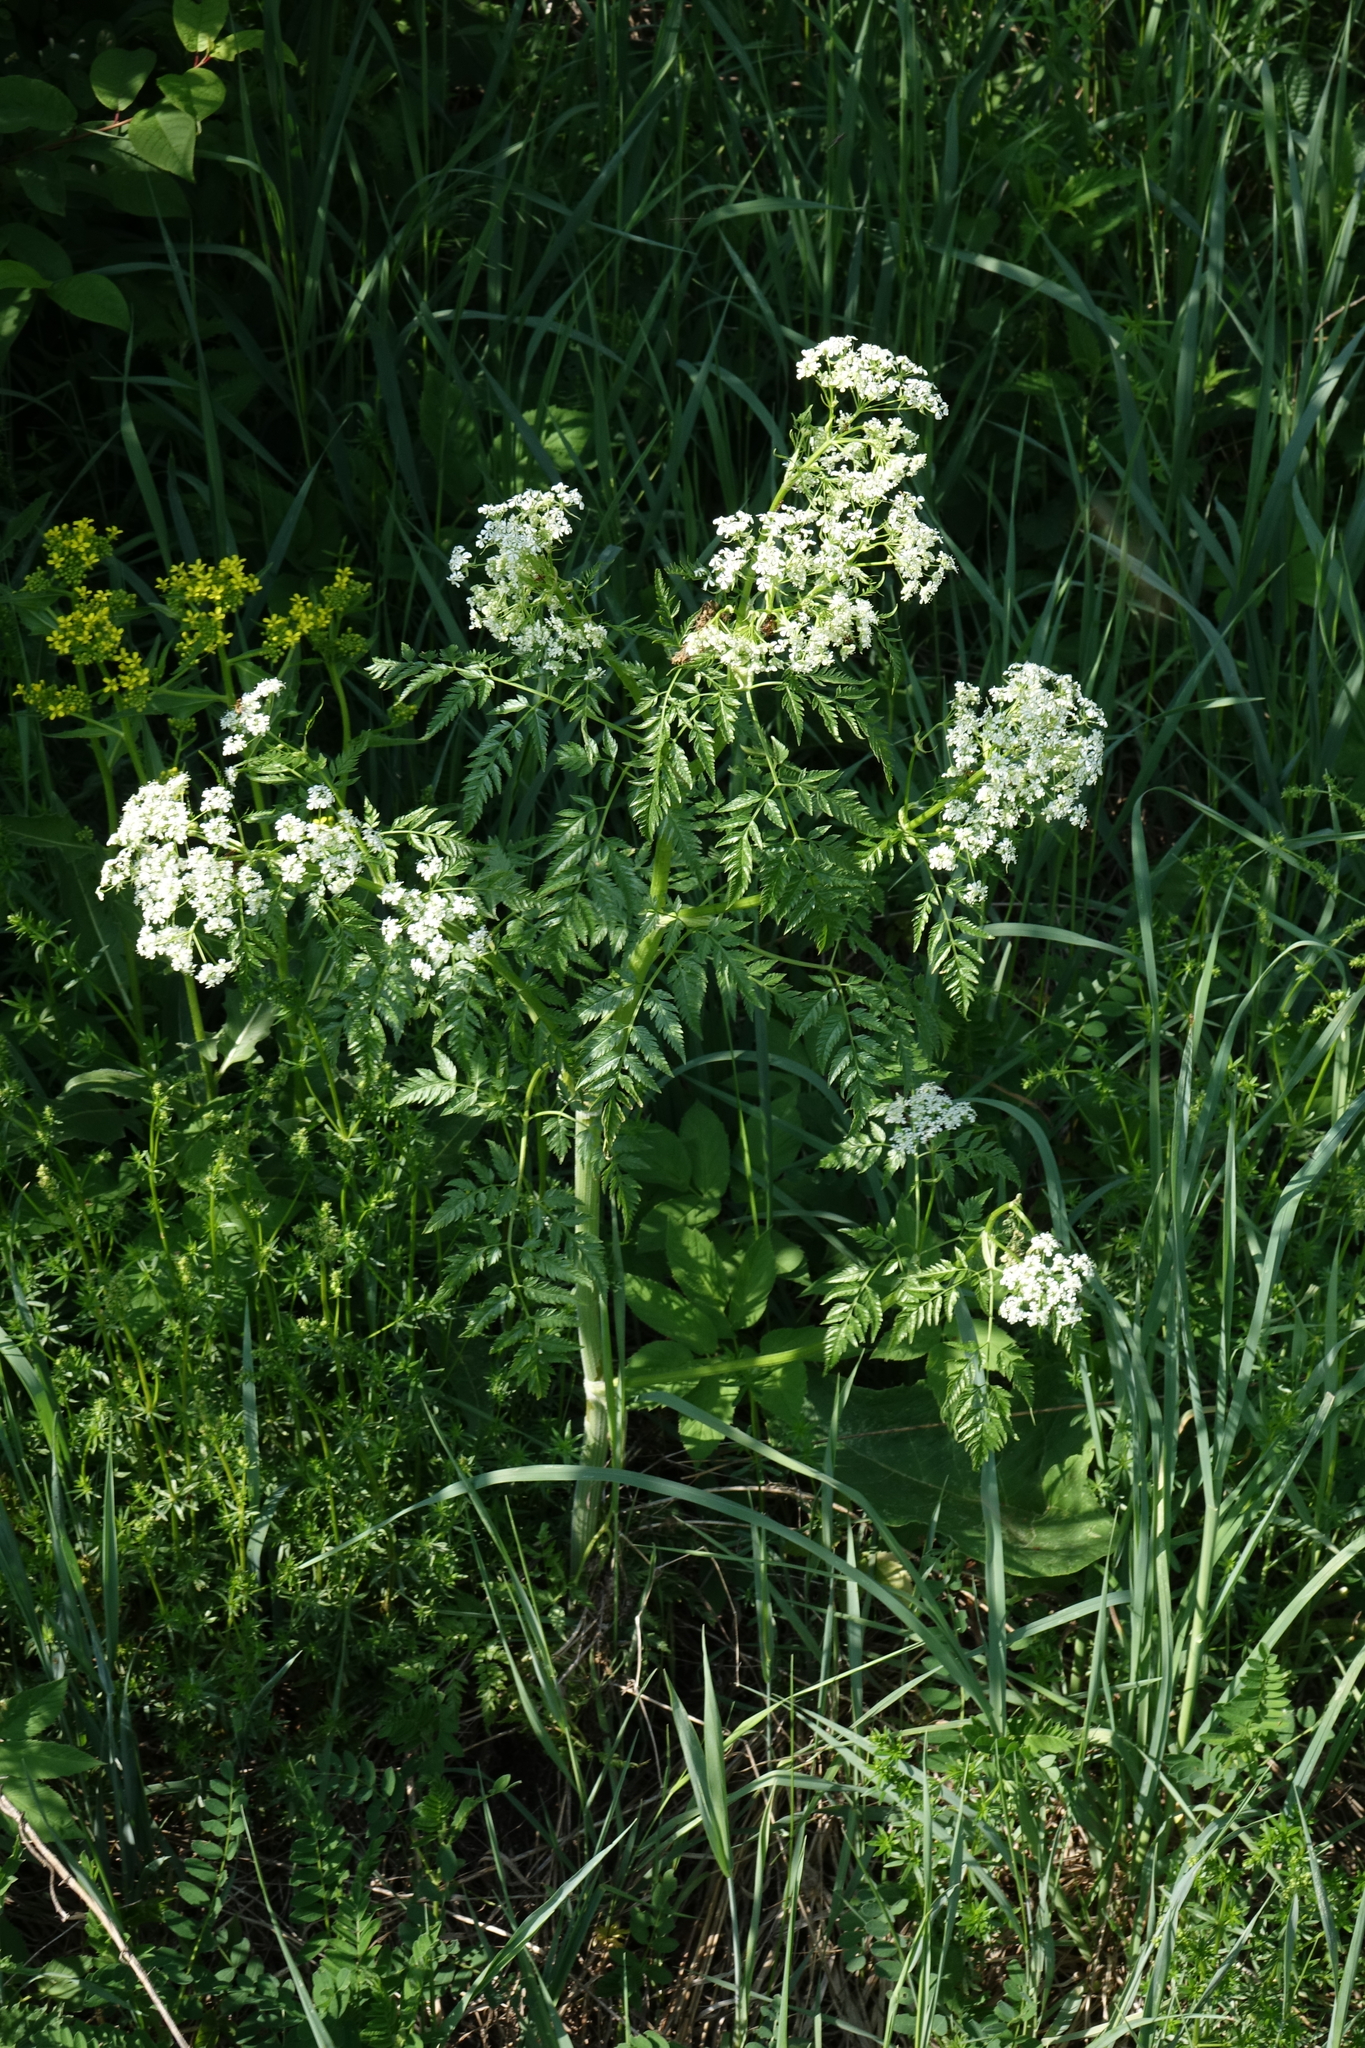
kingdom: Plantae
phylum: Tracheophyta
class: Magnoliopsida
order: Apiales
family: Apiaceae
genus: Anthriscus
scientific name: Anthriscus sylvestris
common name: Cow parsley
